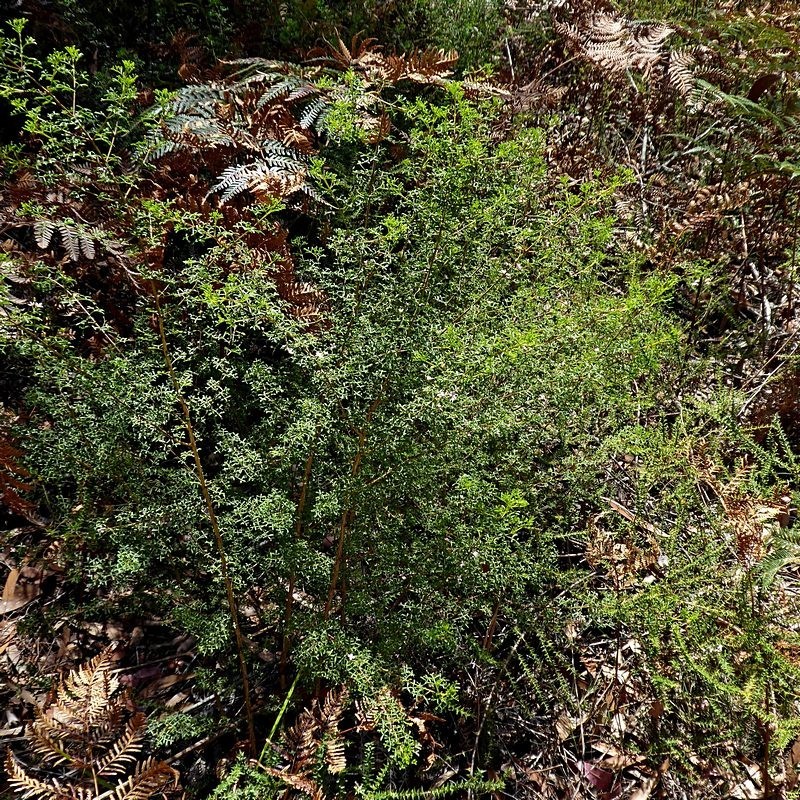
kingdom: Plantae
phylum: Tracheophyta
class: Magnoliopsida
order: Sapindales
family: Rutaceae
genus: Cyanothamnus
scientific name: Cyanothamnus anemonifolius
